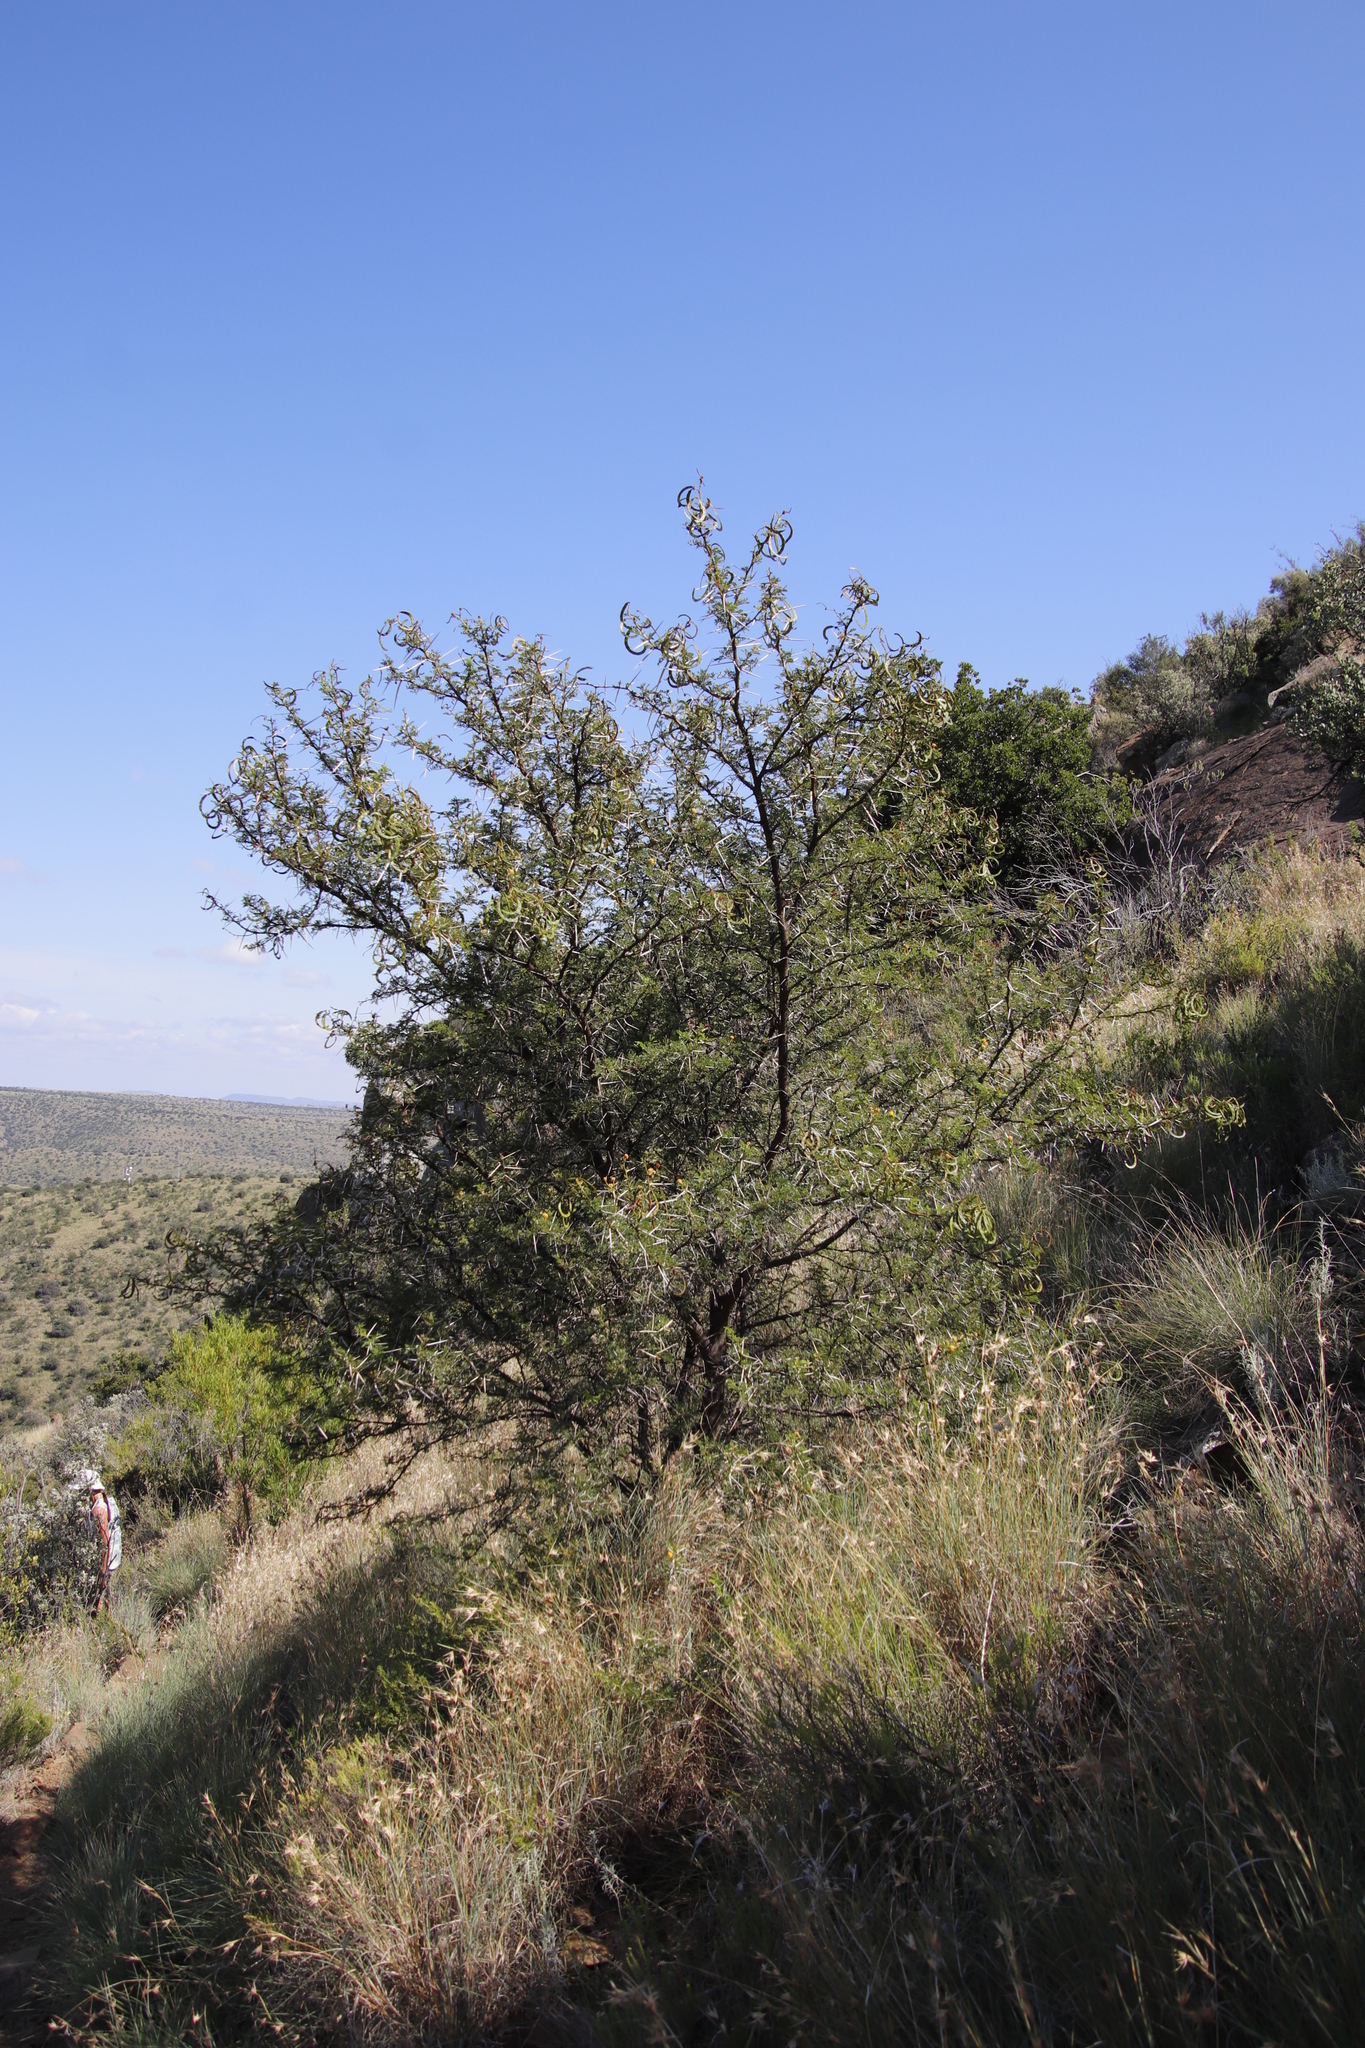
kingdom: Plantae
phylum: Tracheophyta
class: Magnoliopsida
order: Fabales
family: Fabaceae
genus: Vachellia
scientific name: Vachellia karroo
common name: Sweet thorn
